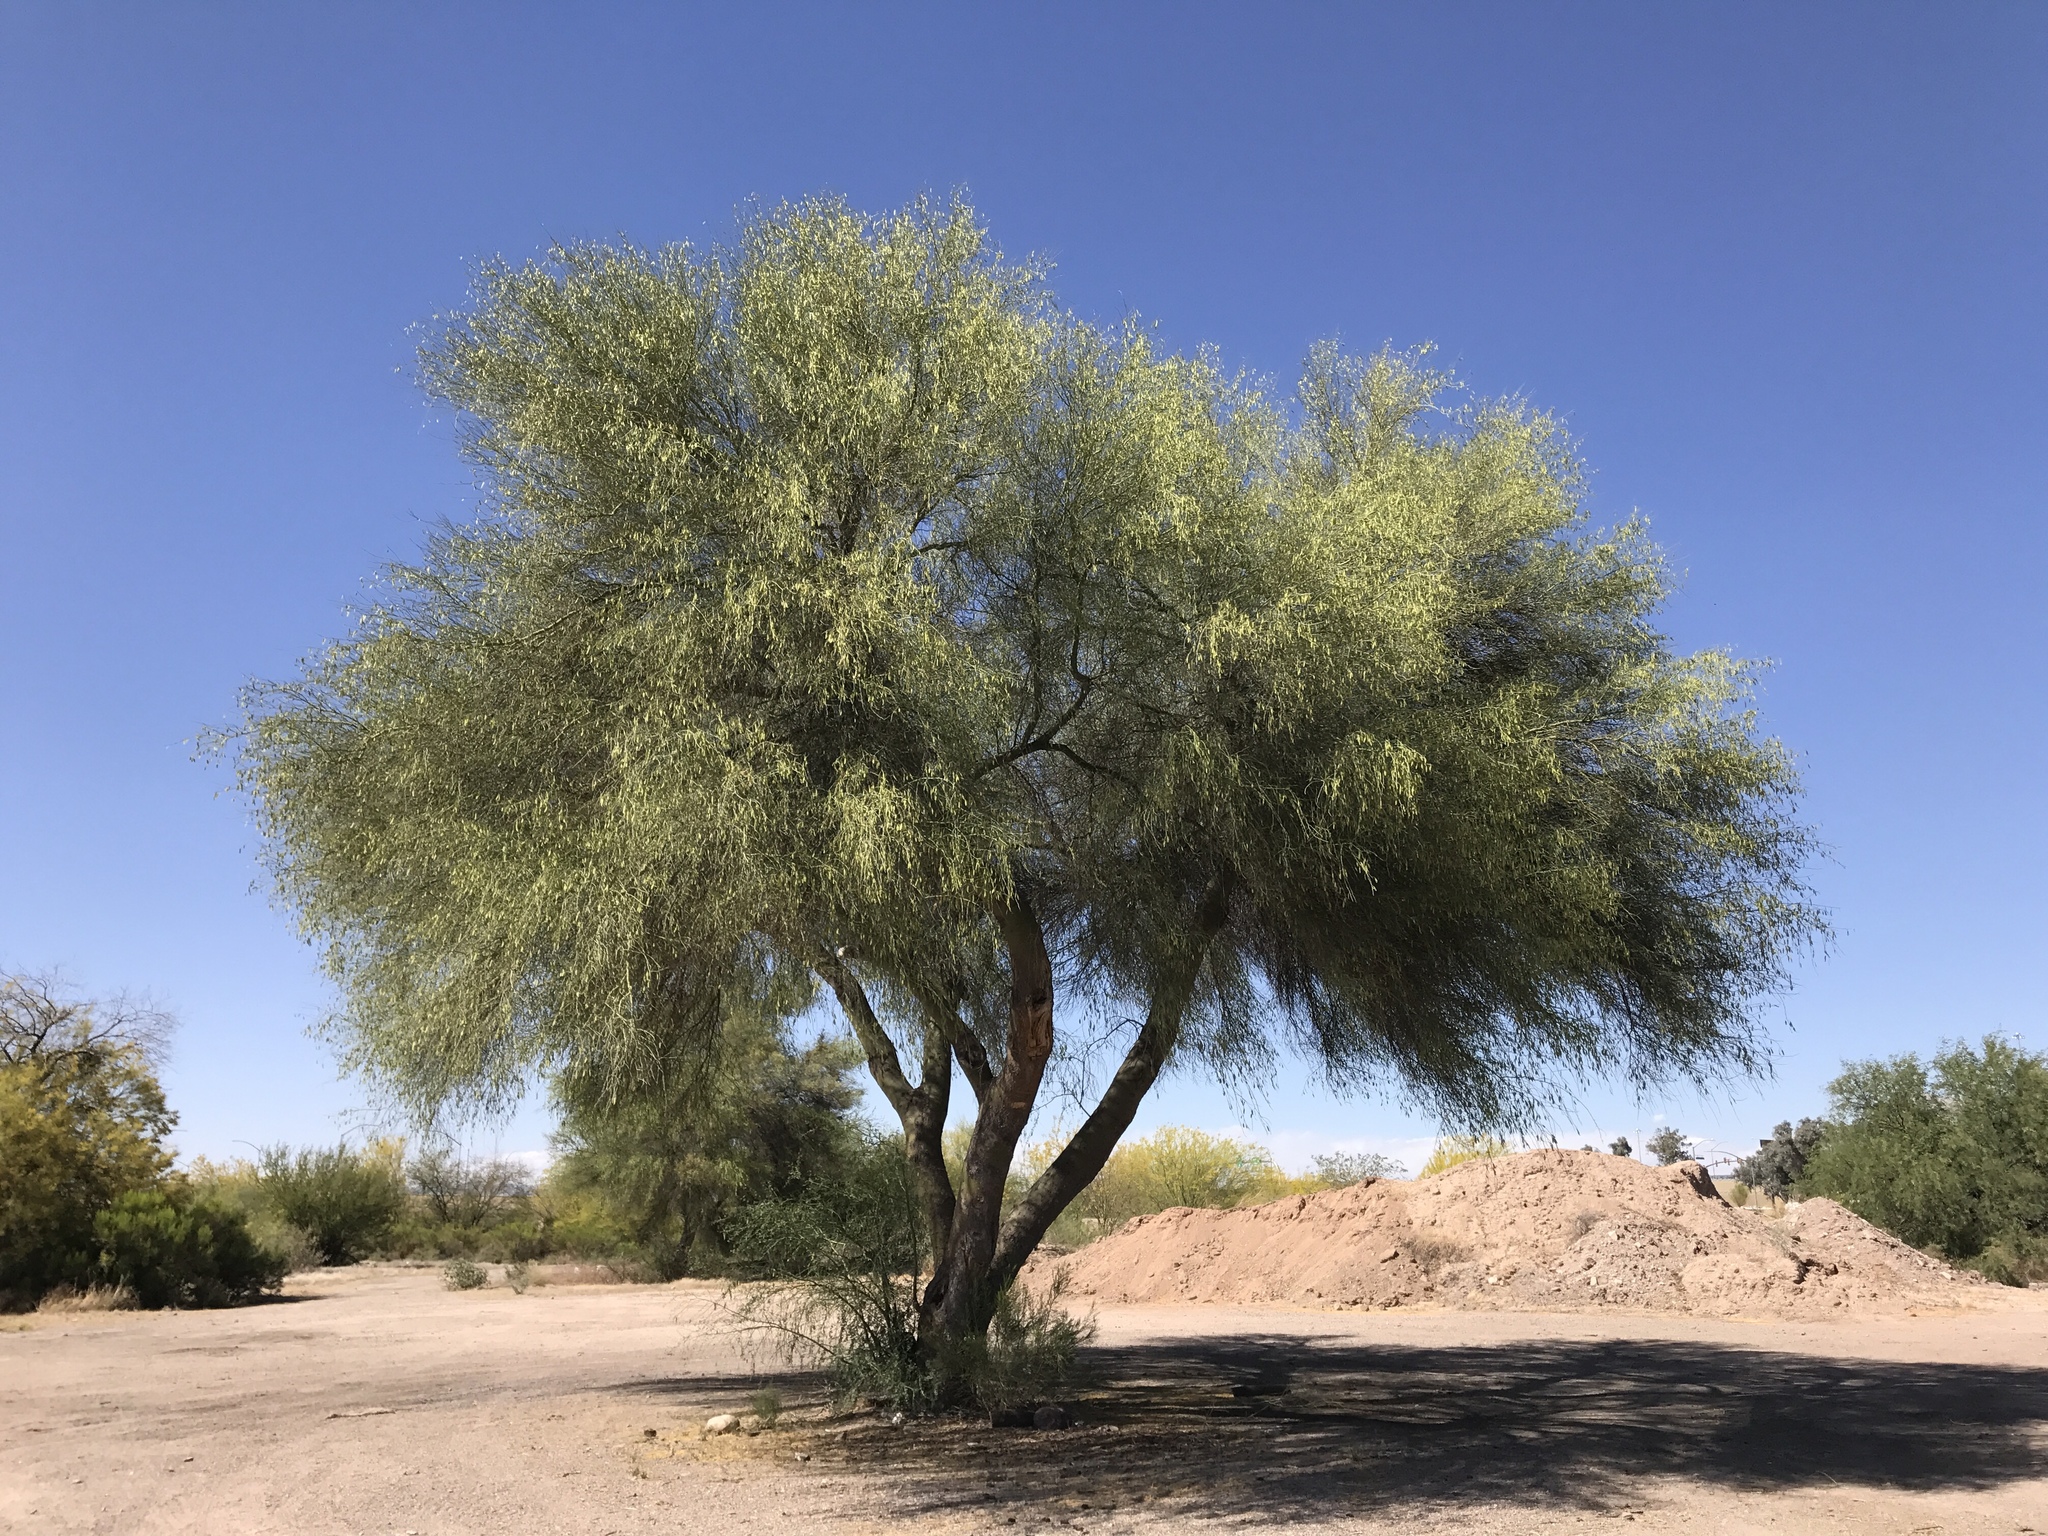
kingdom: Plantae
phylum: Tracheophyta
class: Magnoliopsida
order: Fabales
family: Fabaceae
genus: Parkinsonia
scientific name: Parkinsonia florida
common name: Blue paloverde
